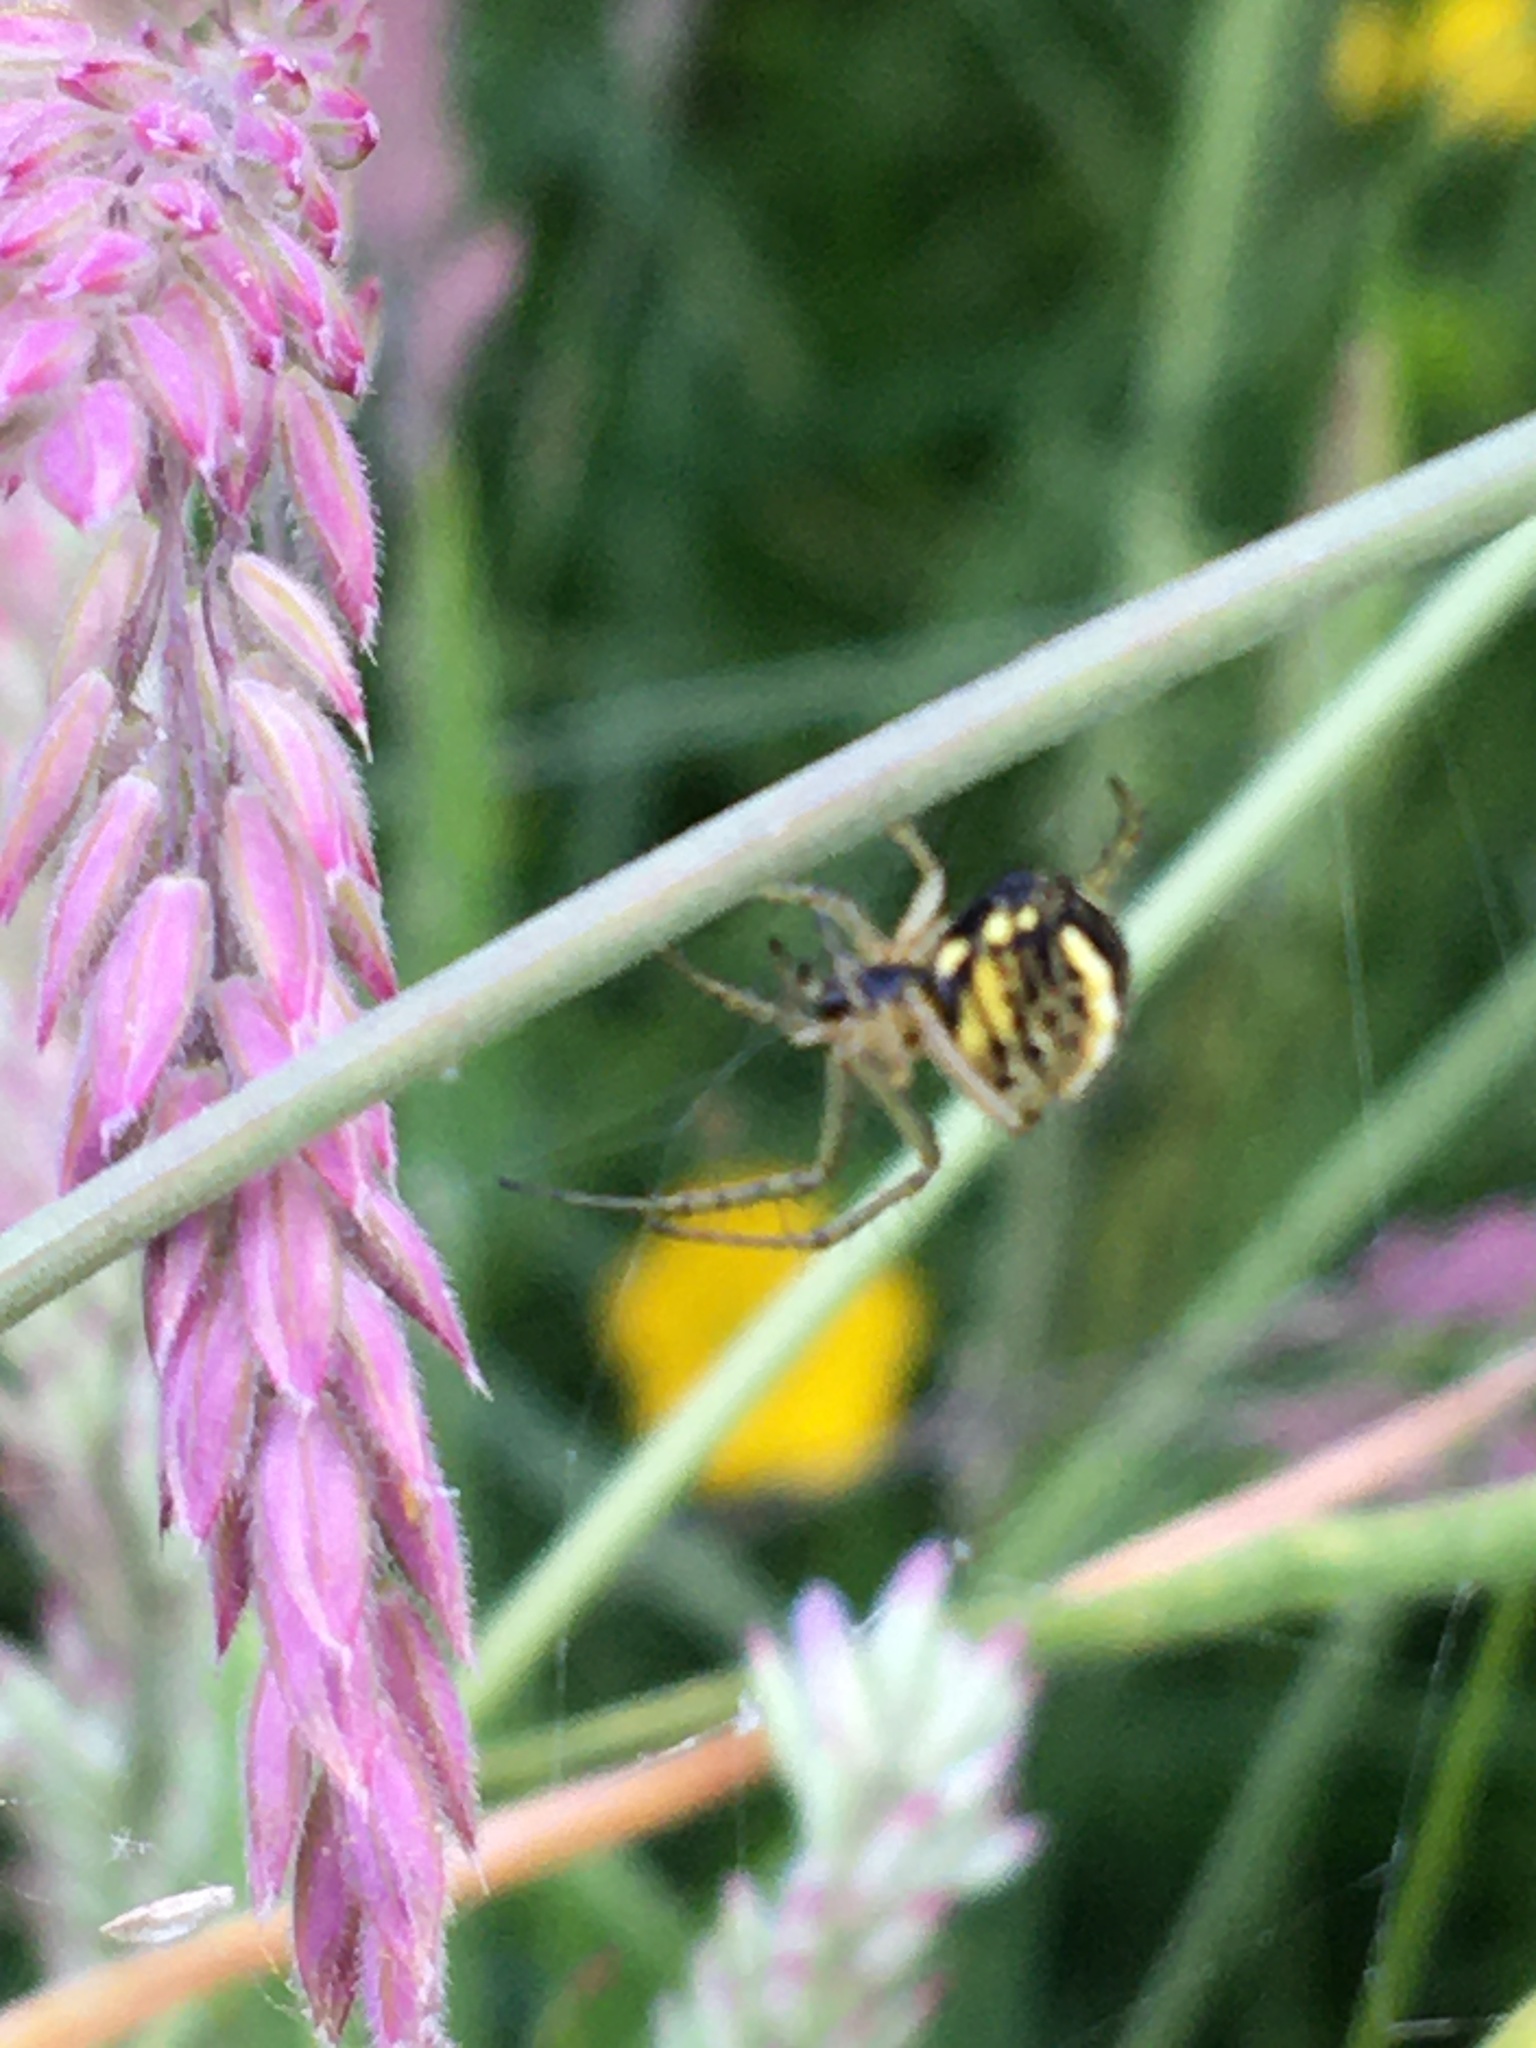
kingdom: Animalia
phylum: Arthropoda
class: Arachnida
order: Araneae
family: Araneidae
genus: Mangora
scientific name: Mangora acalypha
